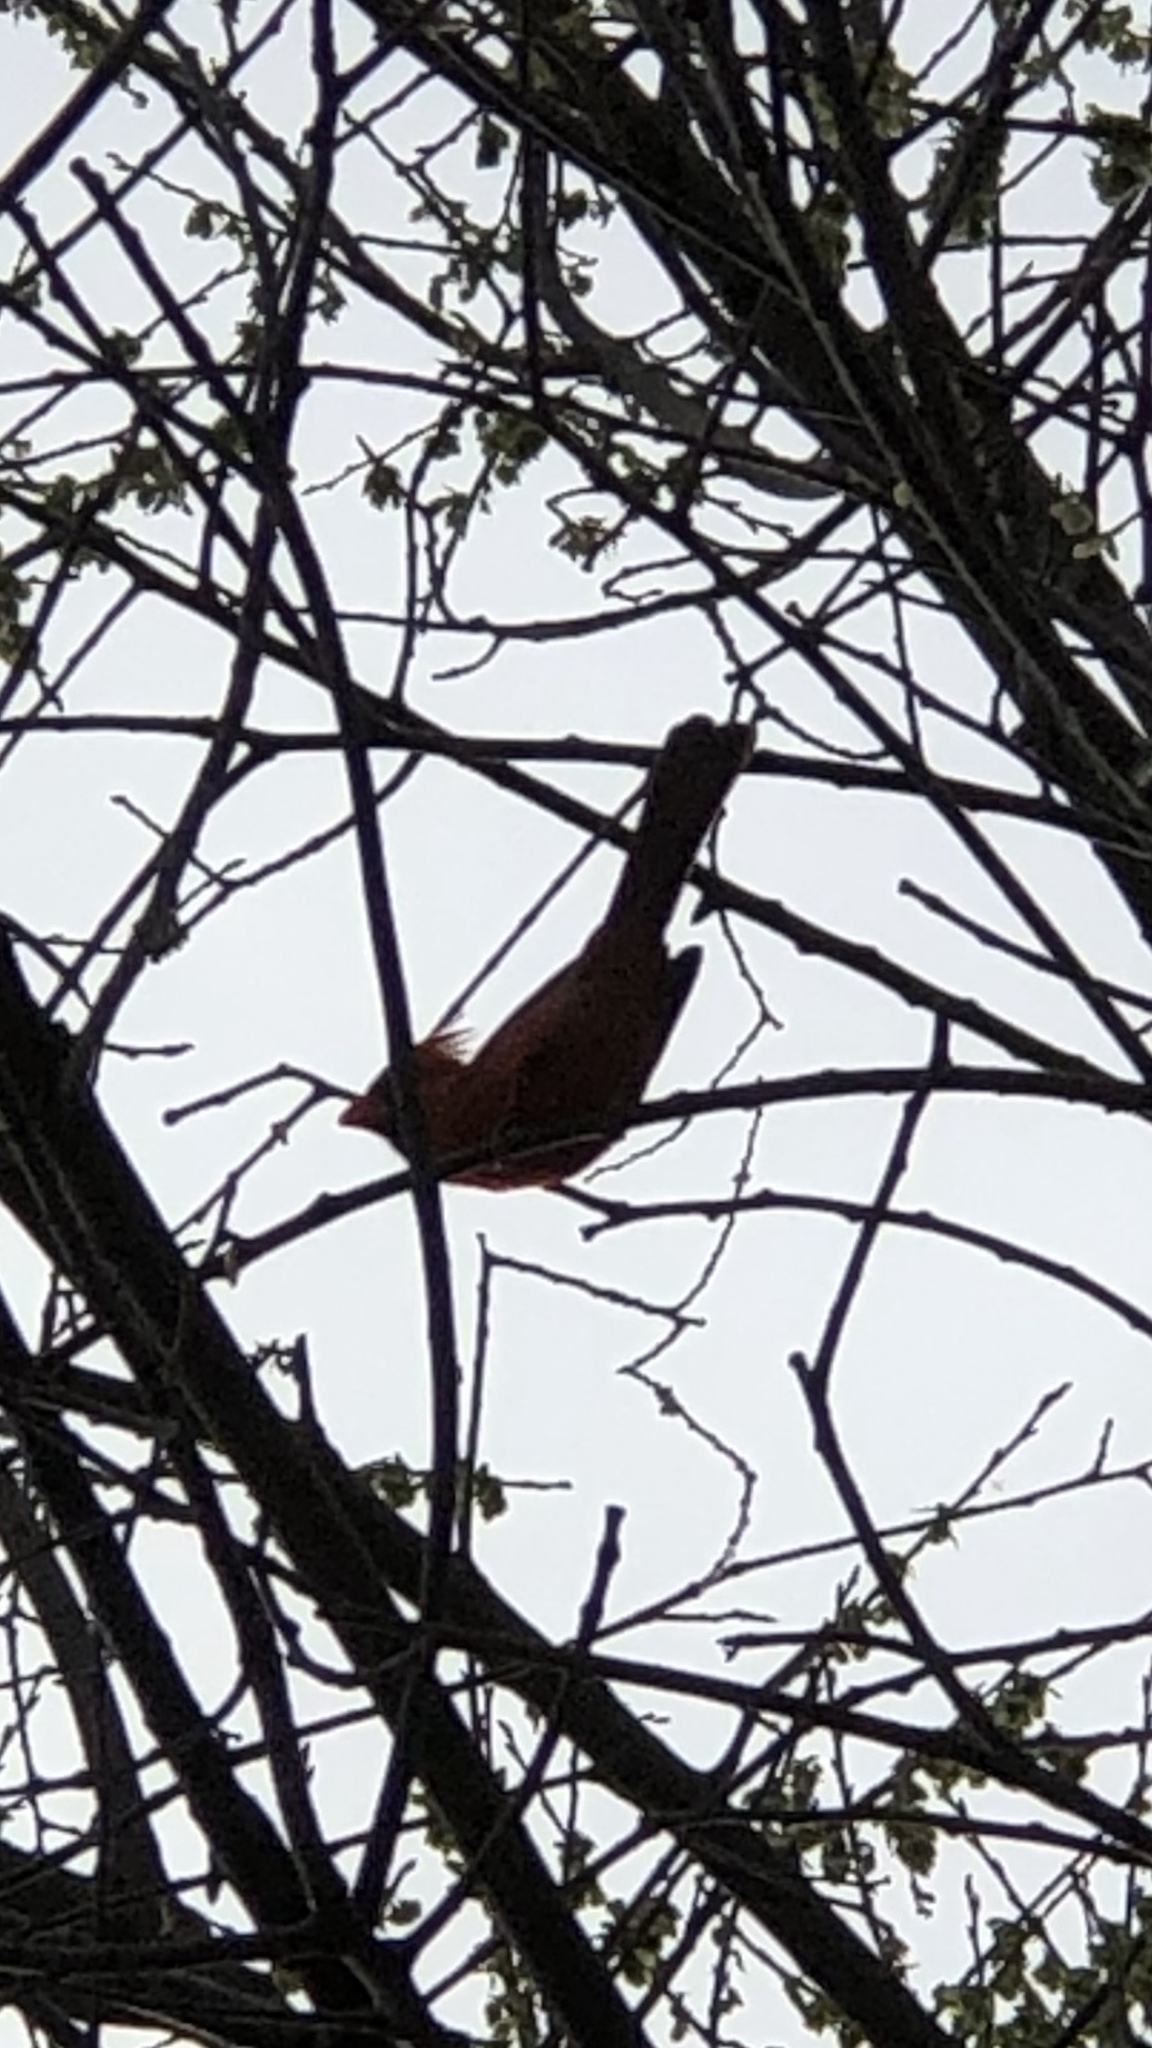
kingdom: Animalia
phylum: Chordata
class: Aves
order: Passeriformes
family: Cardinalidae
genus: Cardinalis
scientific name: Cardinalis cardinalis
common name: Northern cardinal
